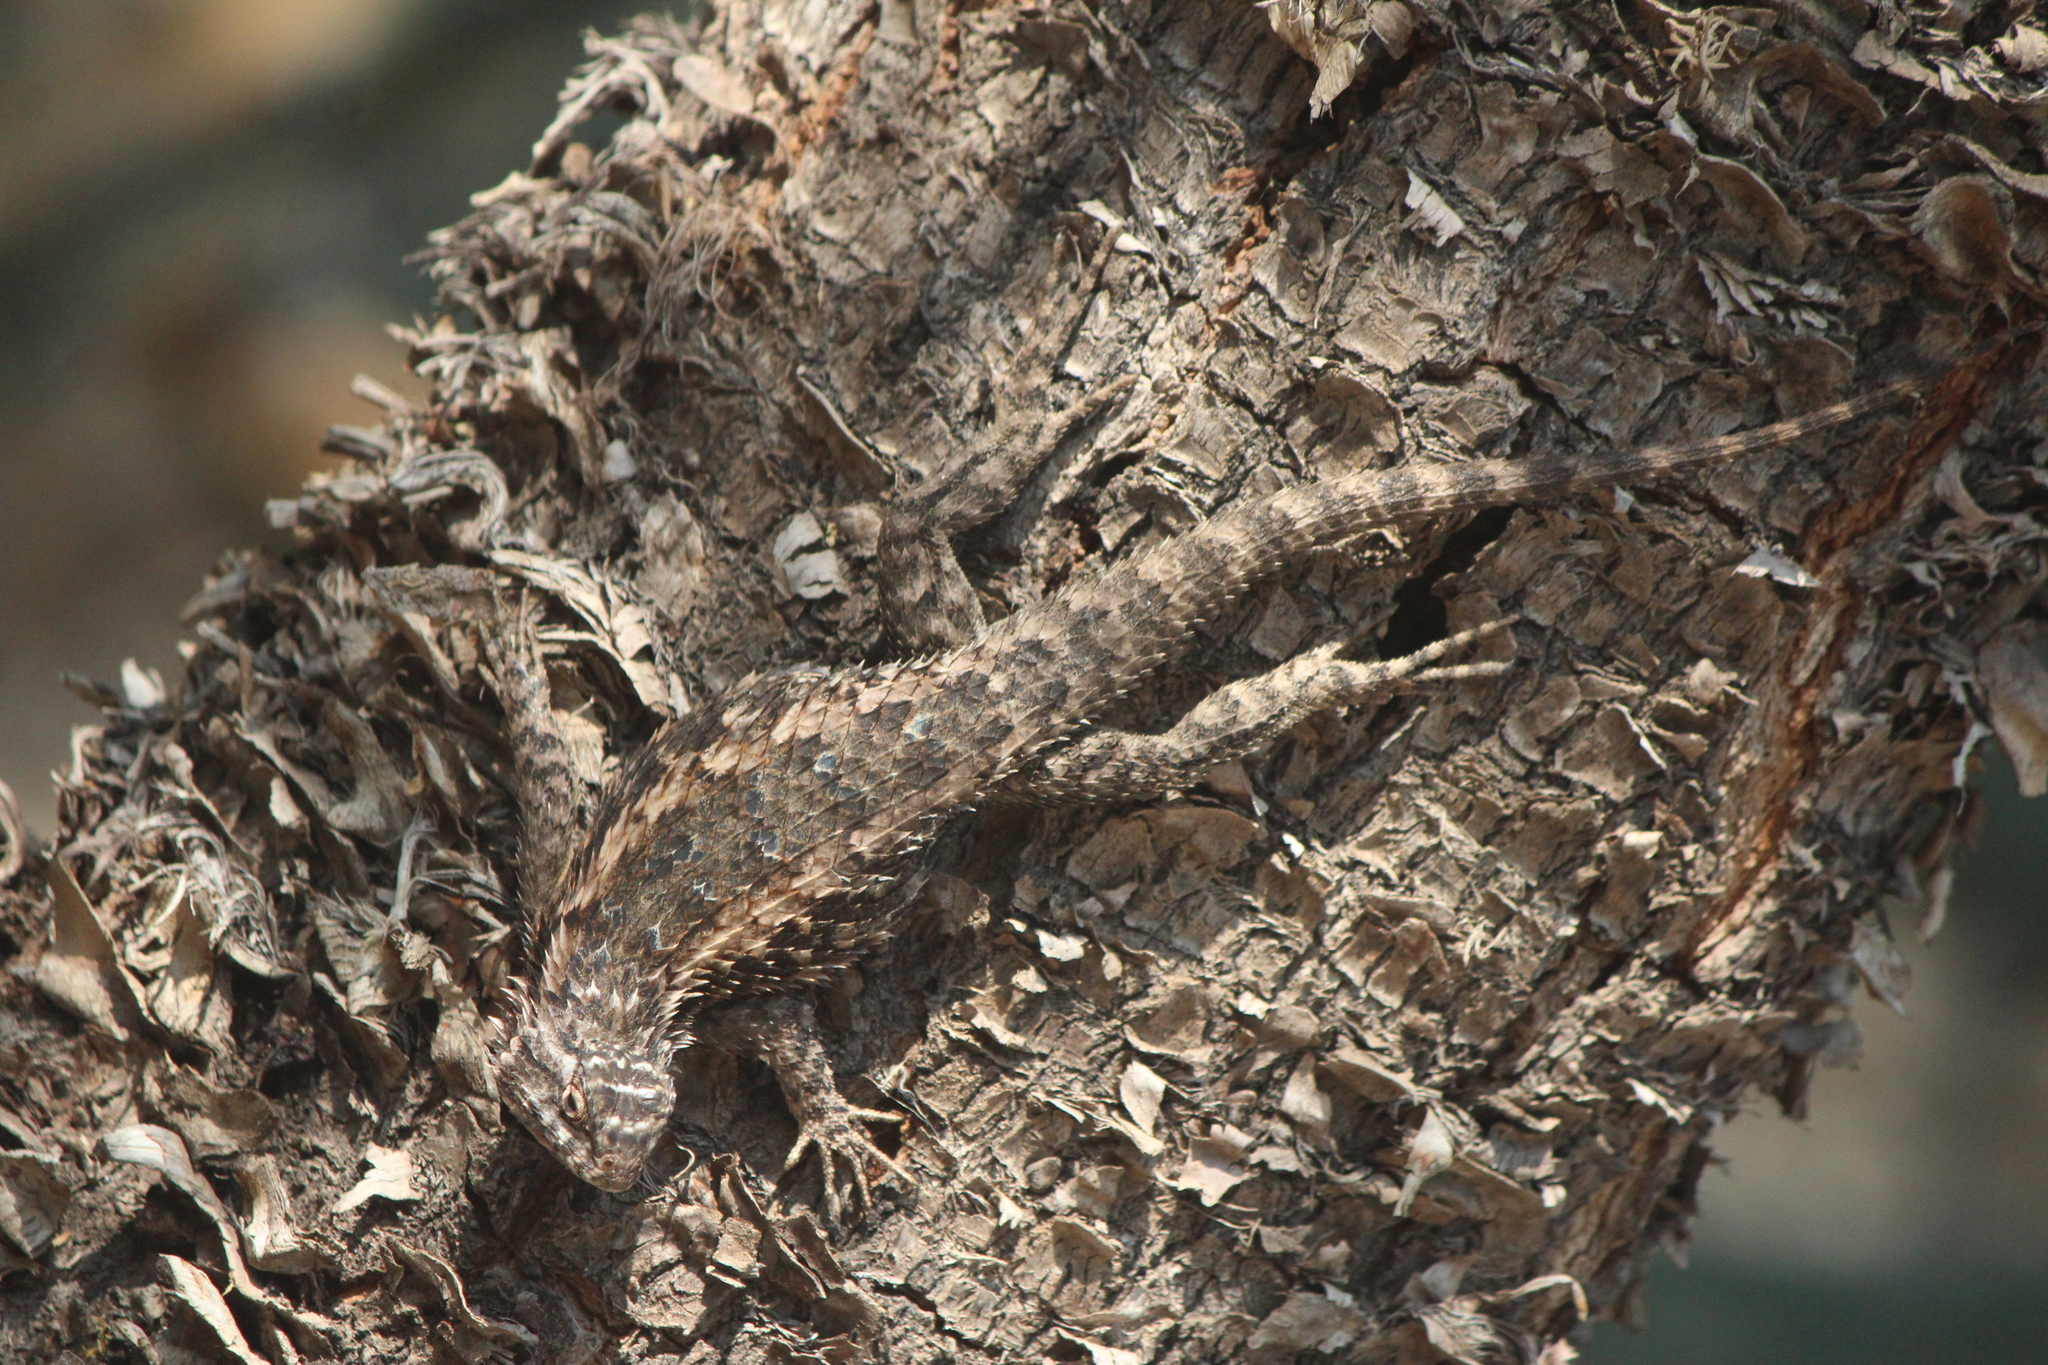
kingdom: Animalia
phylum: Chordata
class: Squamata
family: Phrynosomatidae
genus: Sceloporus
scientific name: Sceloporus spinosus
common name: Blue-spotted spiny lizard [caeruleopunctatus]
